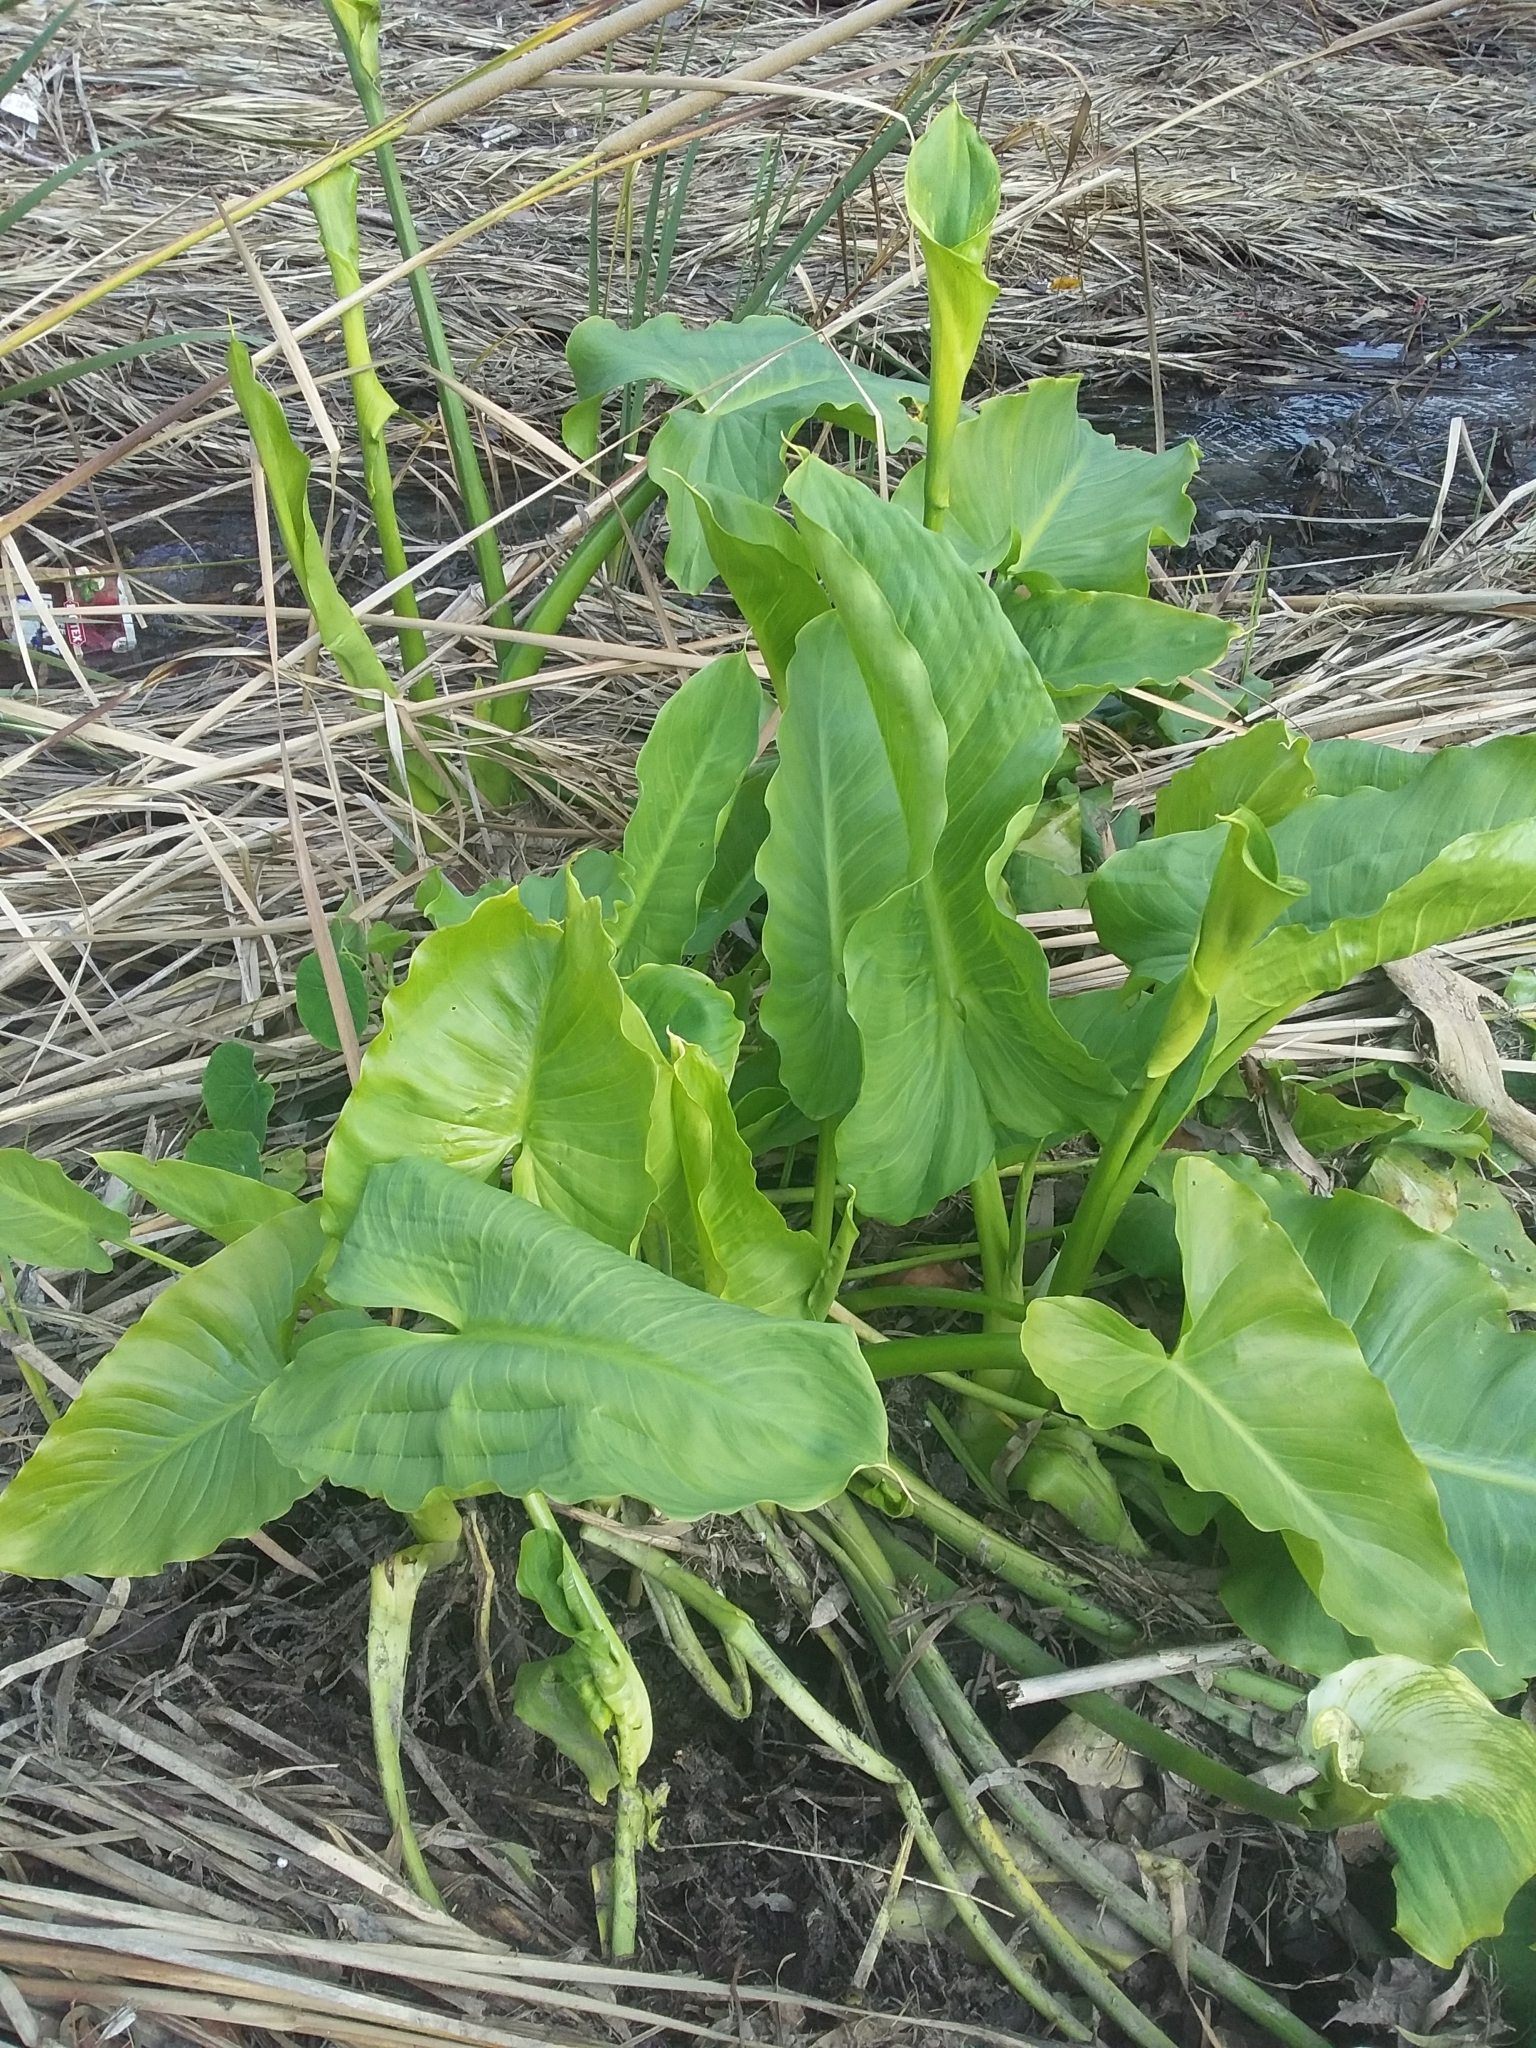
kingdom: Plantae
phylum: Tracheophyta
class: Liliopsida
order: Alismatales
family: Araceae
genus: Zantedeschia
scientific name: Zantedeschia aethiopica
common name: Altar-lily
